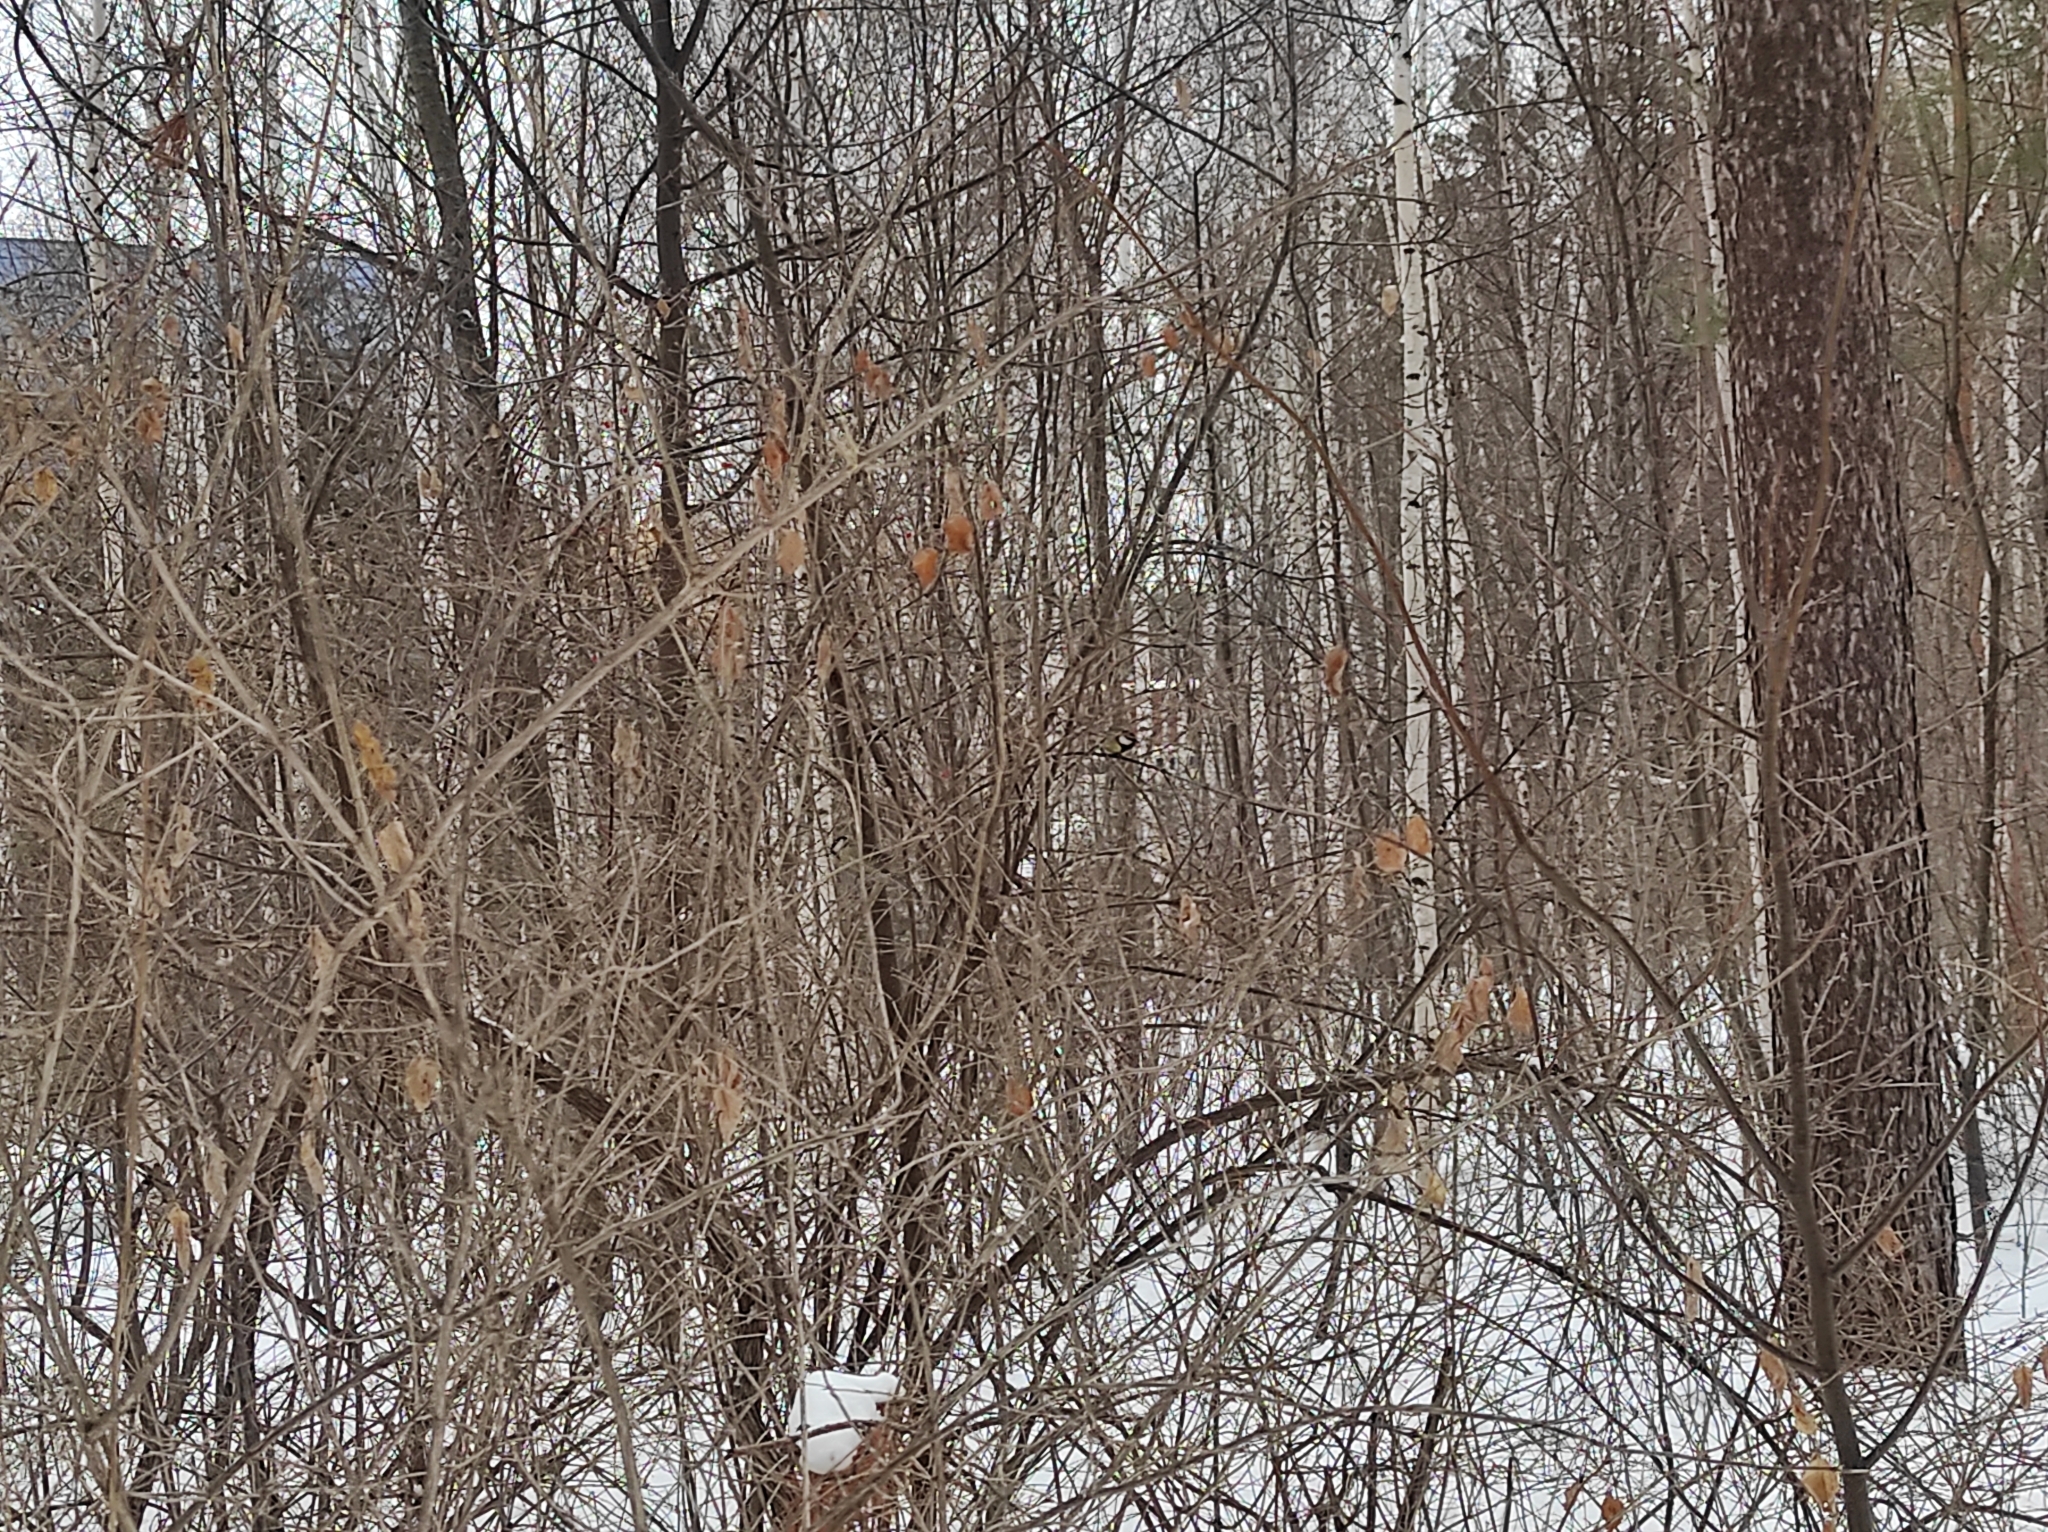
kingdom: Animalia
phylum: Chordata
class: Aves
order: Passeriformes
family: Paridae
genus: Parus
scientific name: Parus major
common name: Great tit
